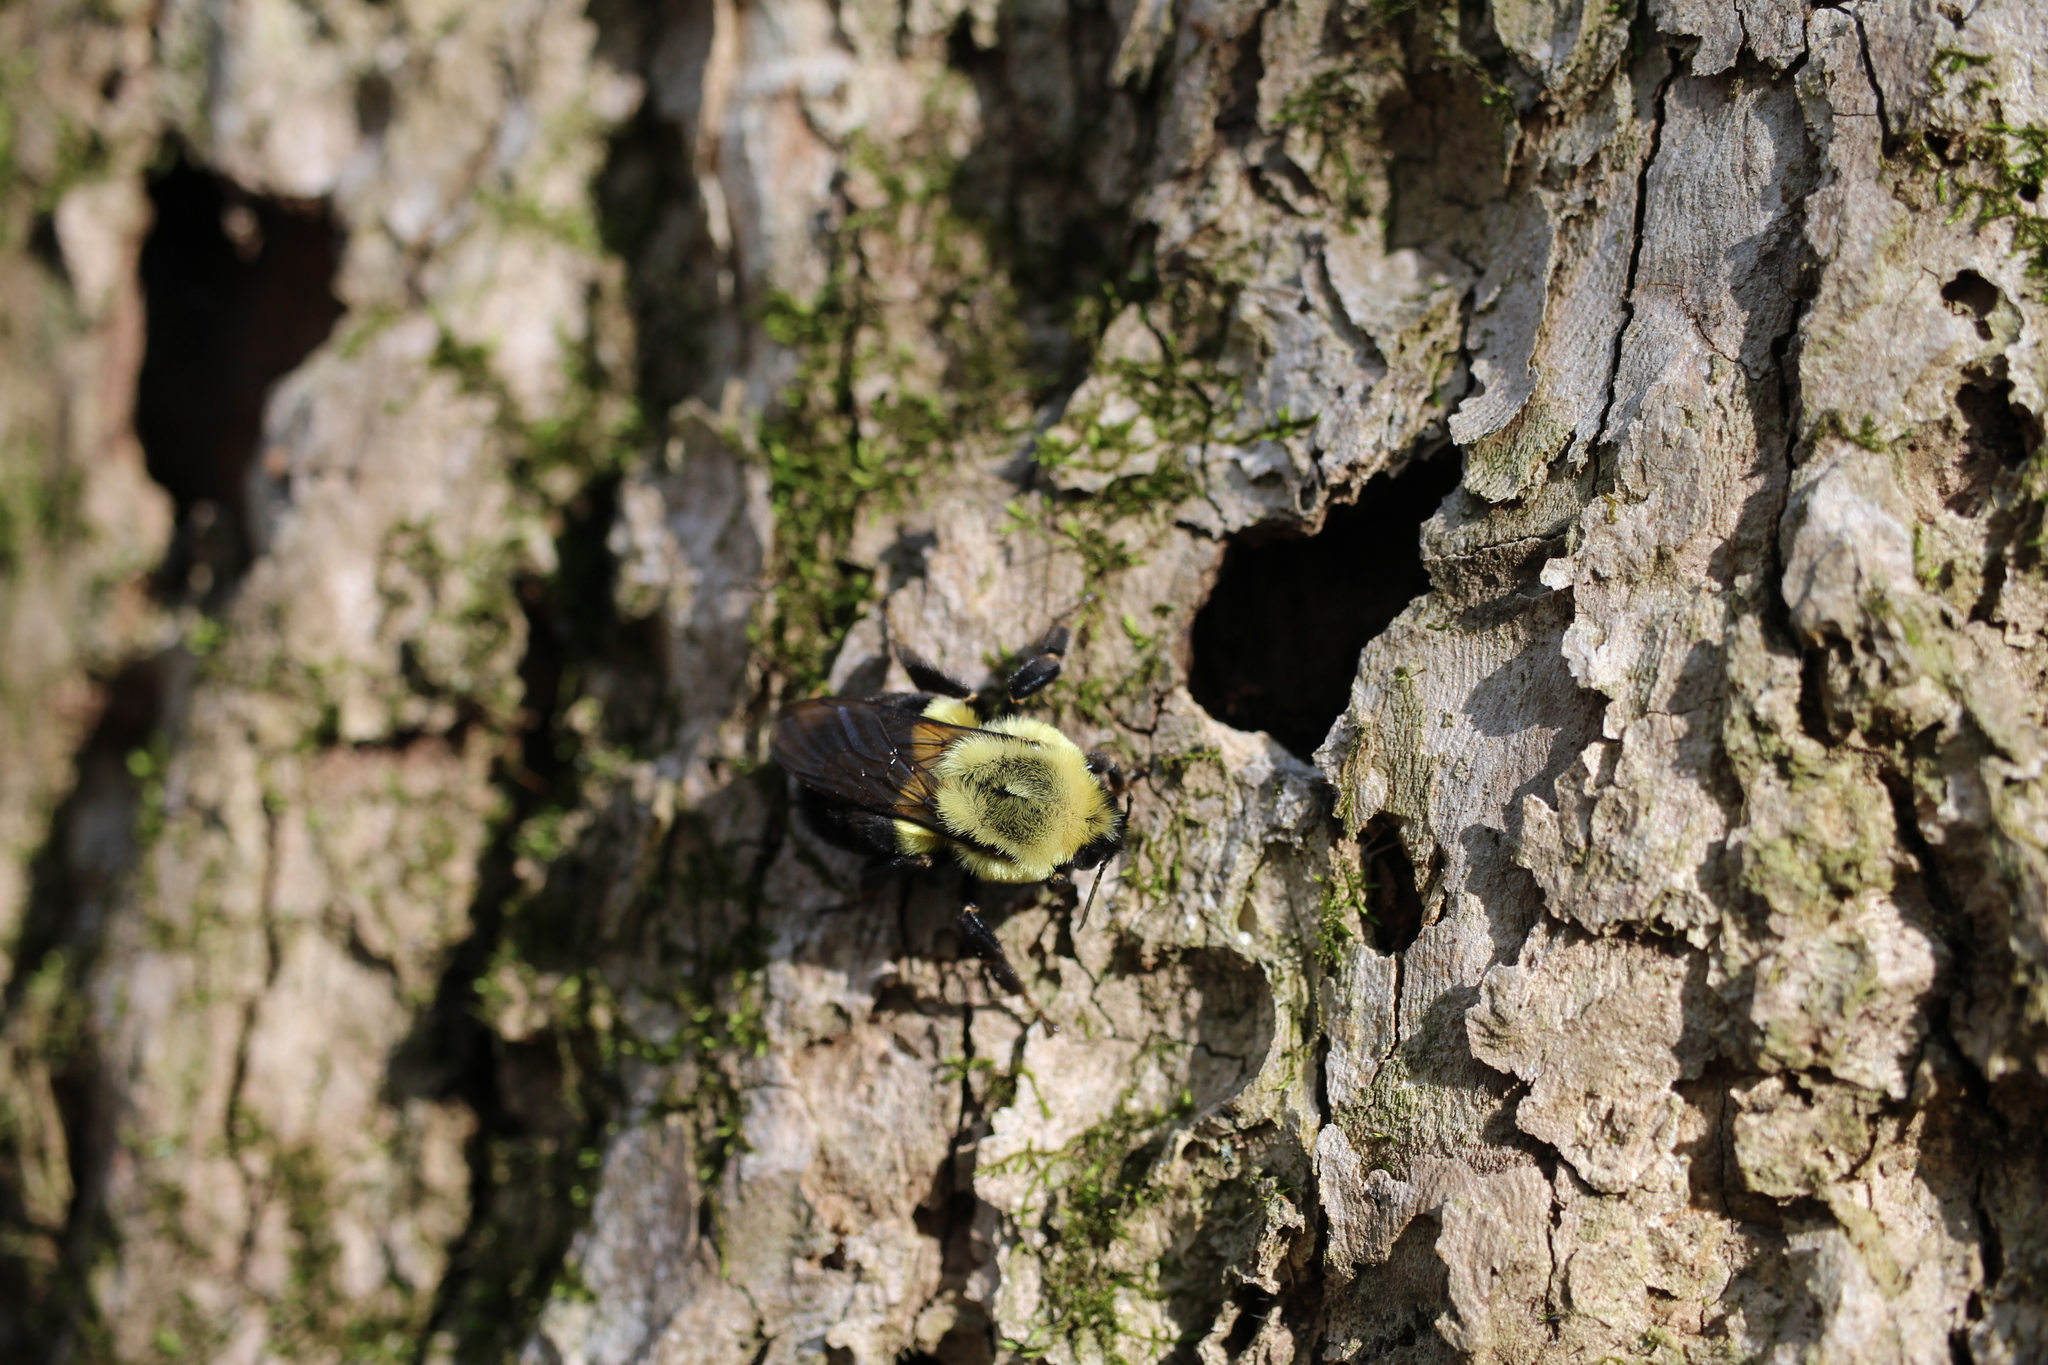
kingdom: Animalia
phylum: Arthropoda
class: Insecta
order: Hymenoptera
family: Apidae
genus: Bombus
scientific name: Bombus impatiens
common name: Common eastern bumble bee
